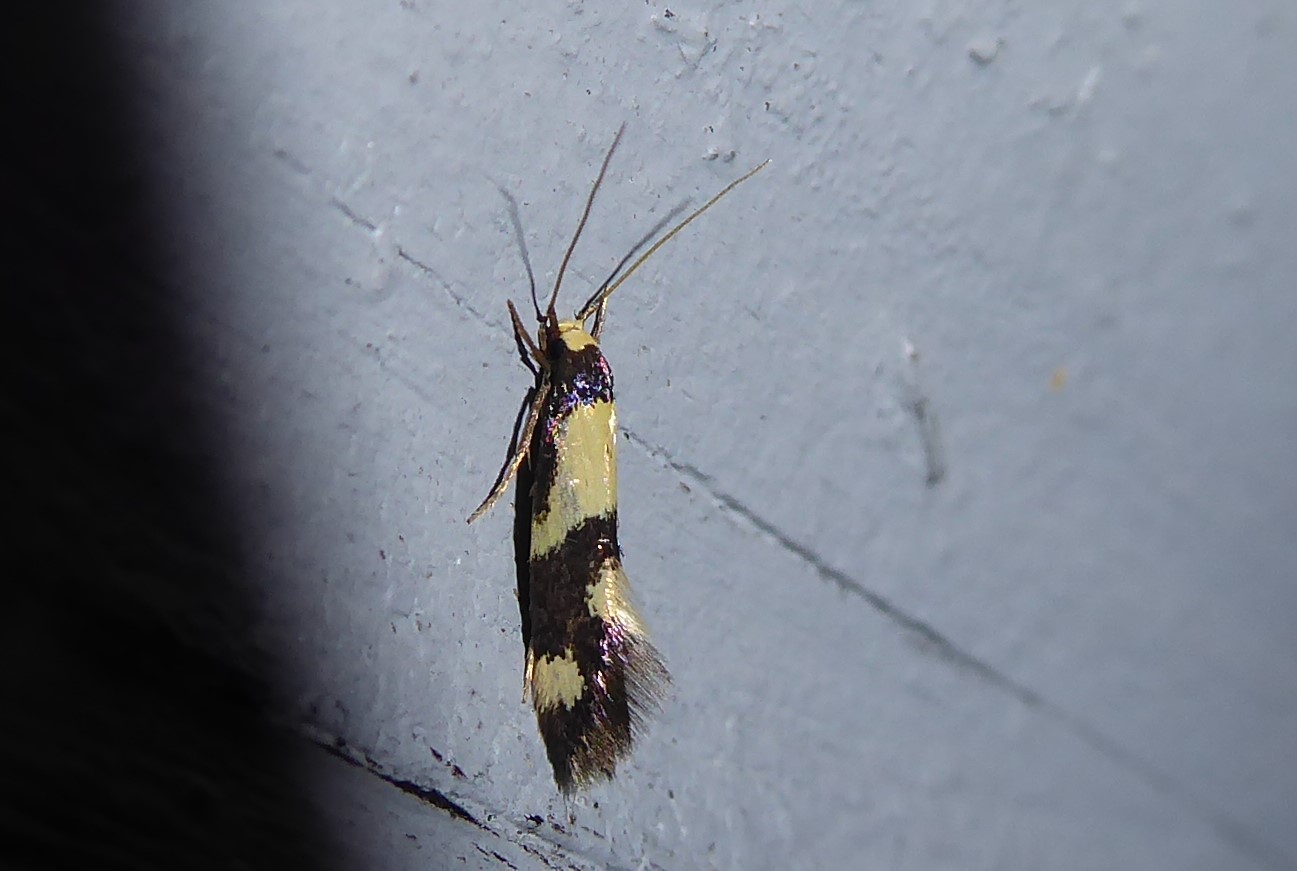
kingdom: Animalia
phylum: Arthropoda
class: Insecta
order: Lepidoptera
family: Tineidae
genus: Opogona
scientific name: Opogona comptella
